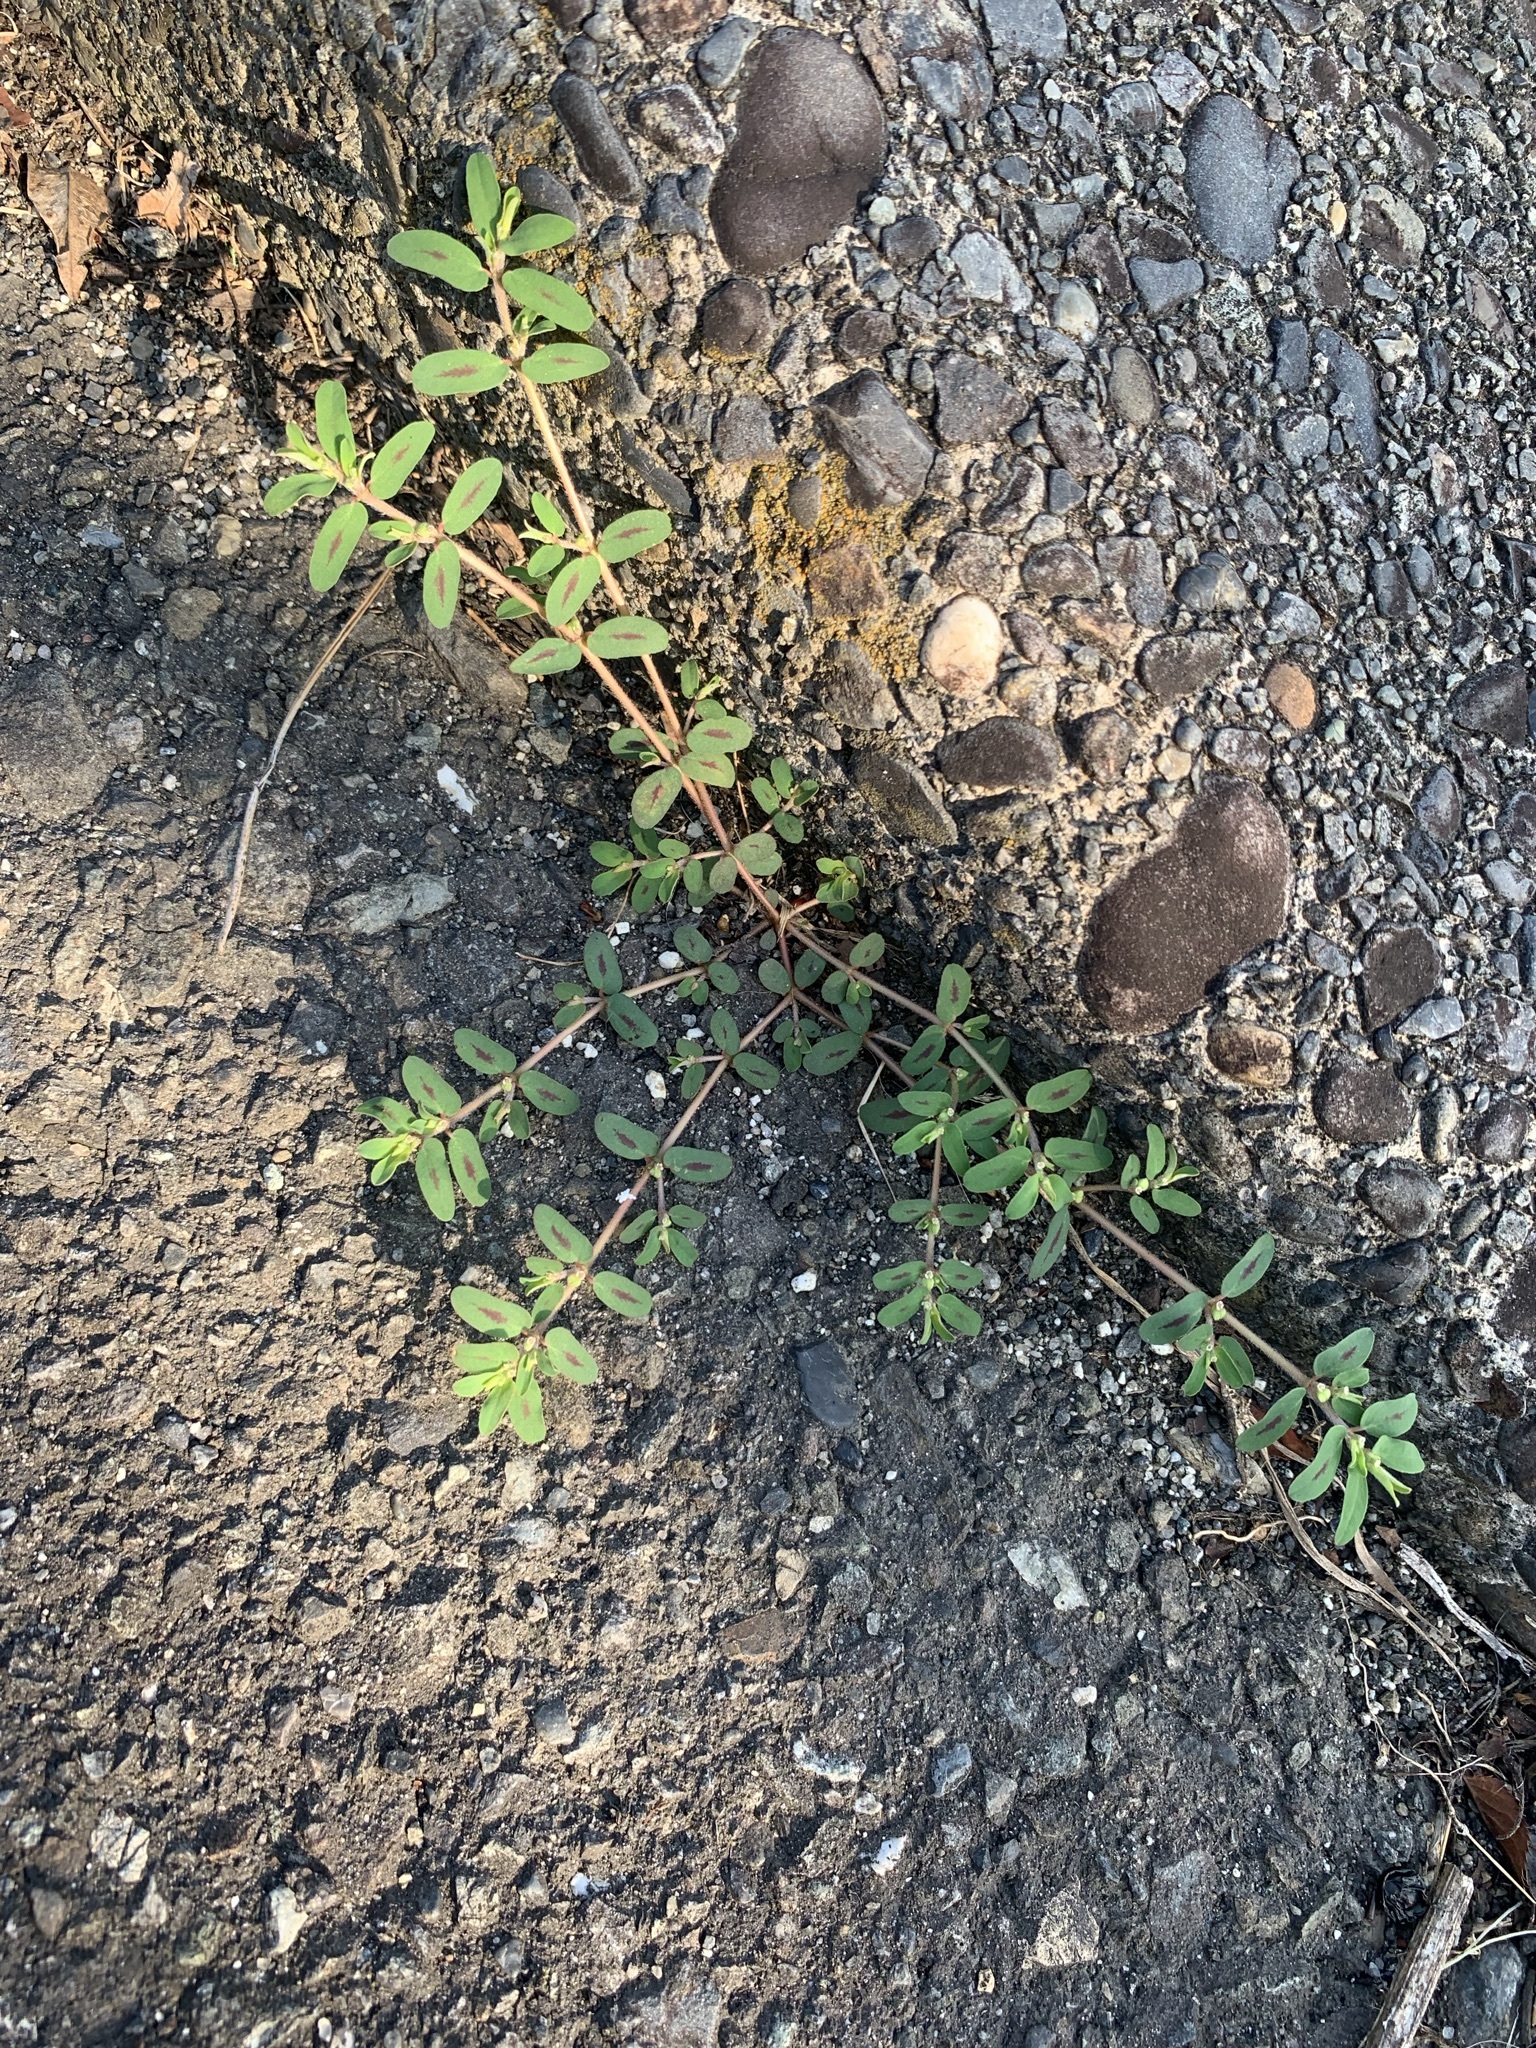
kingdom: Plantae
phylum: Tracheophyta
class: Magnoliopsida
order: Malpighiales
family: Euphorbiaceae
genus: Euphorbia
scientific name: Euphorbia maculata
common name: Spotted spurge
